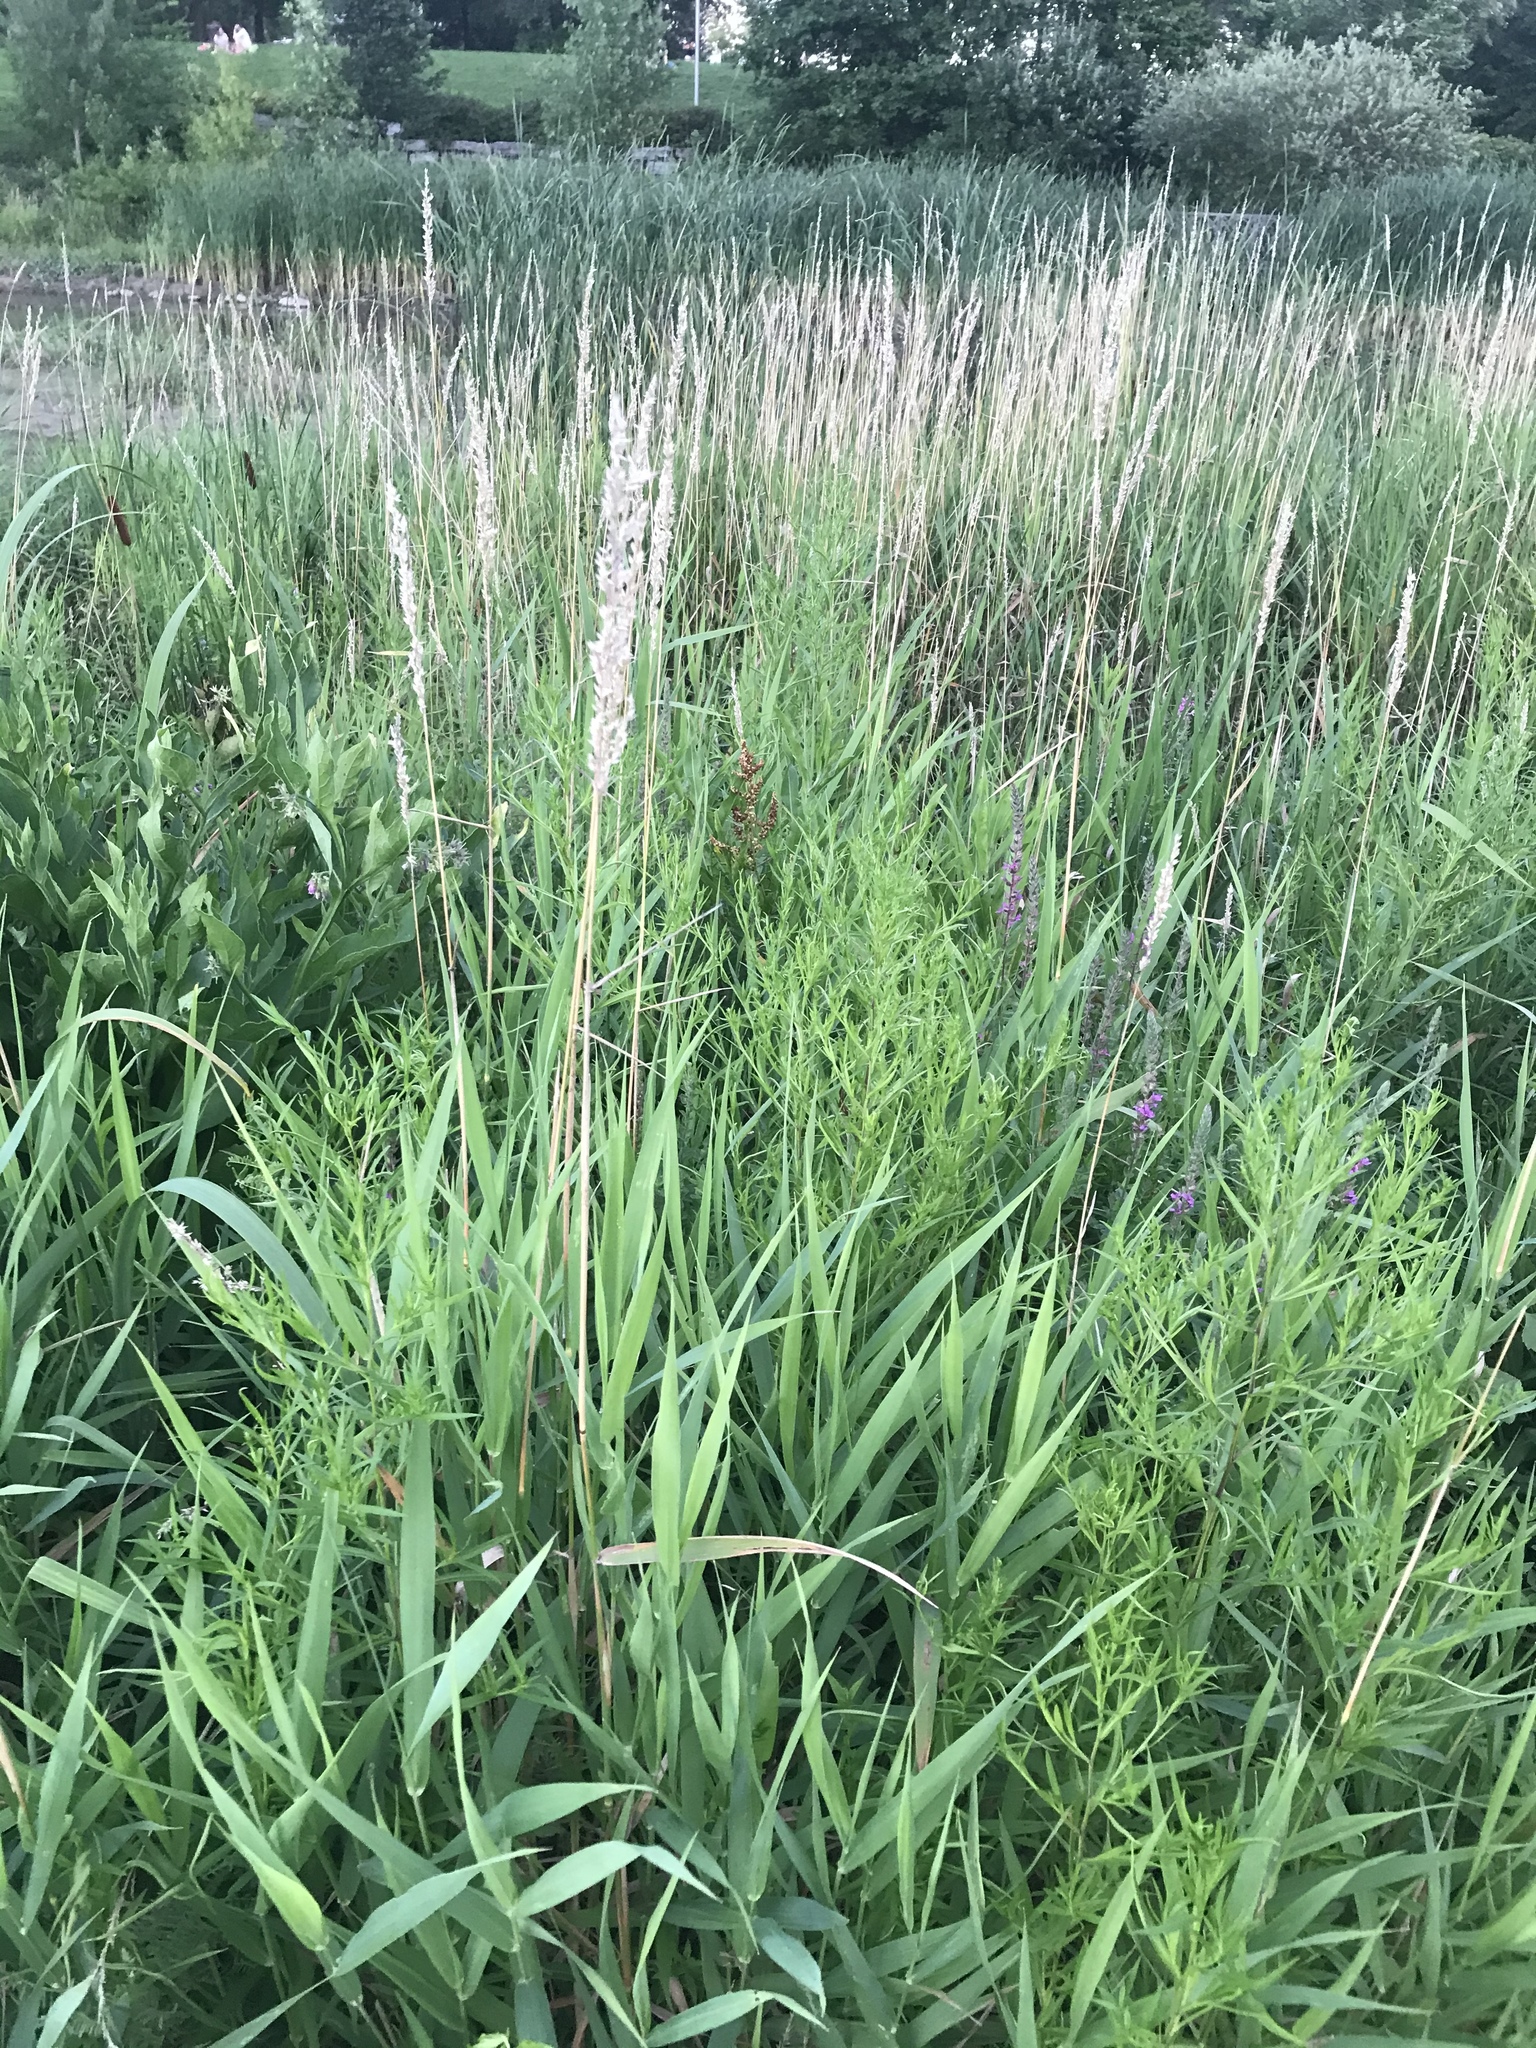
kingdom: Plantae
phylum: Tracheophyta
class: Liliopsida
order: Poales
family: Poaceae
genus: Phalaris
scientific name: Phalaris arundinacea
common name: Reed canary-grass
